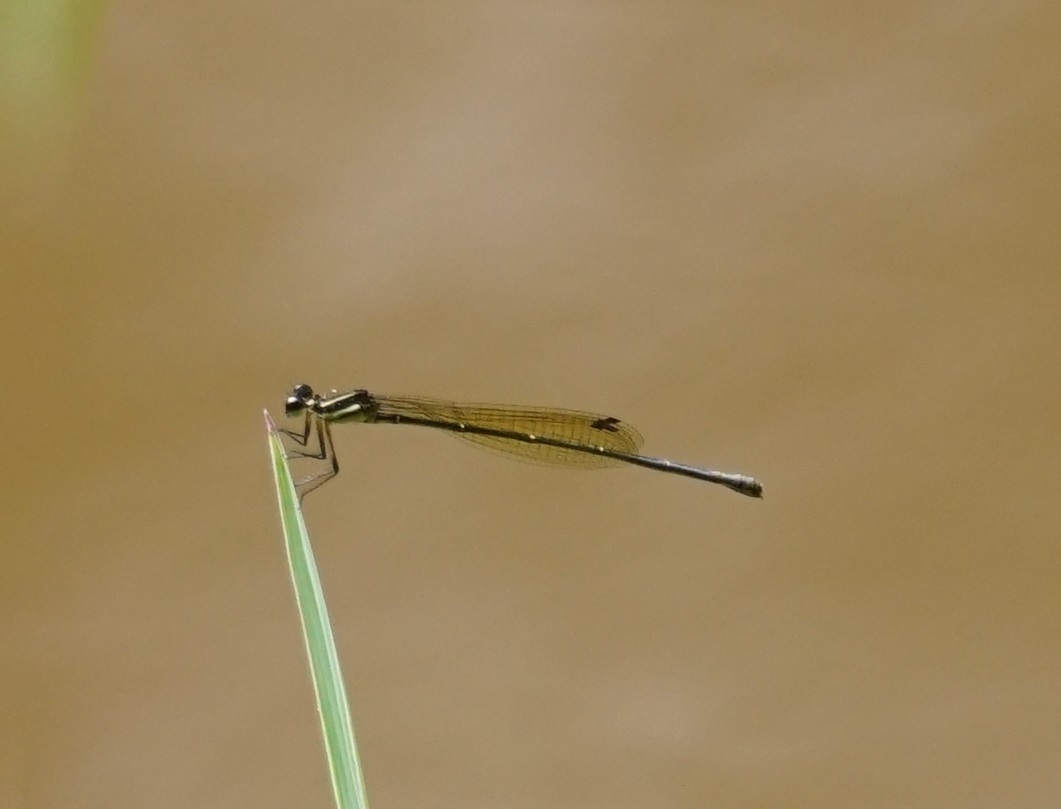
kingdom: Animalia
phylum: Arthropoda
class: Insecta
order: Odonata
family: Platycnemididae
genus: Nososticta
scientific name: Nososticta solitaria
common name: Fivespot threadtail
